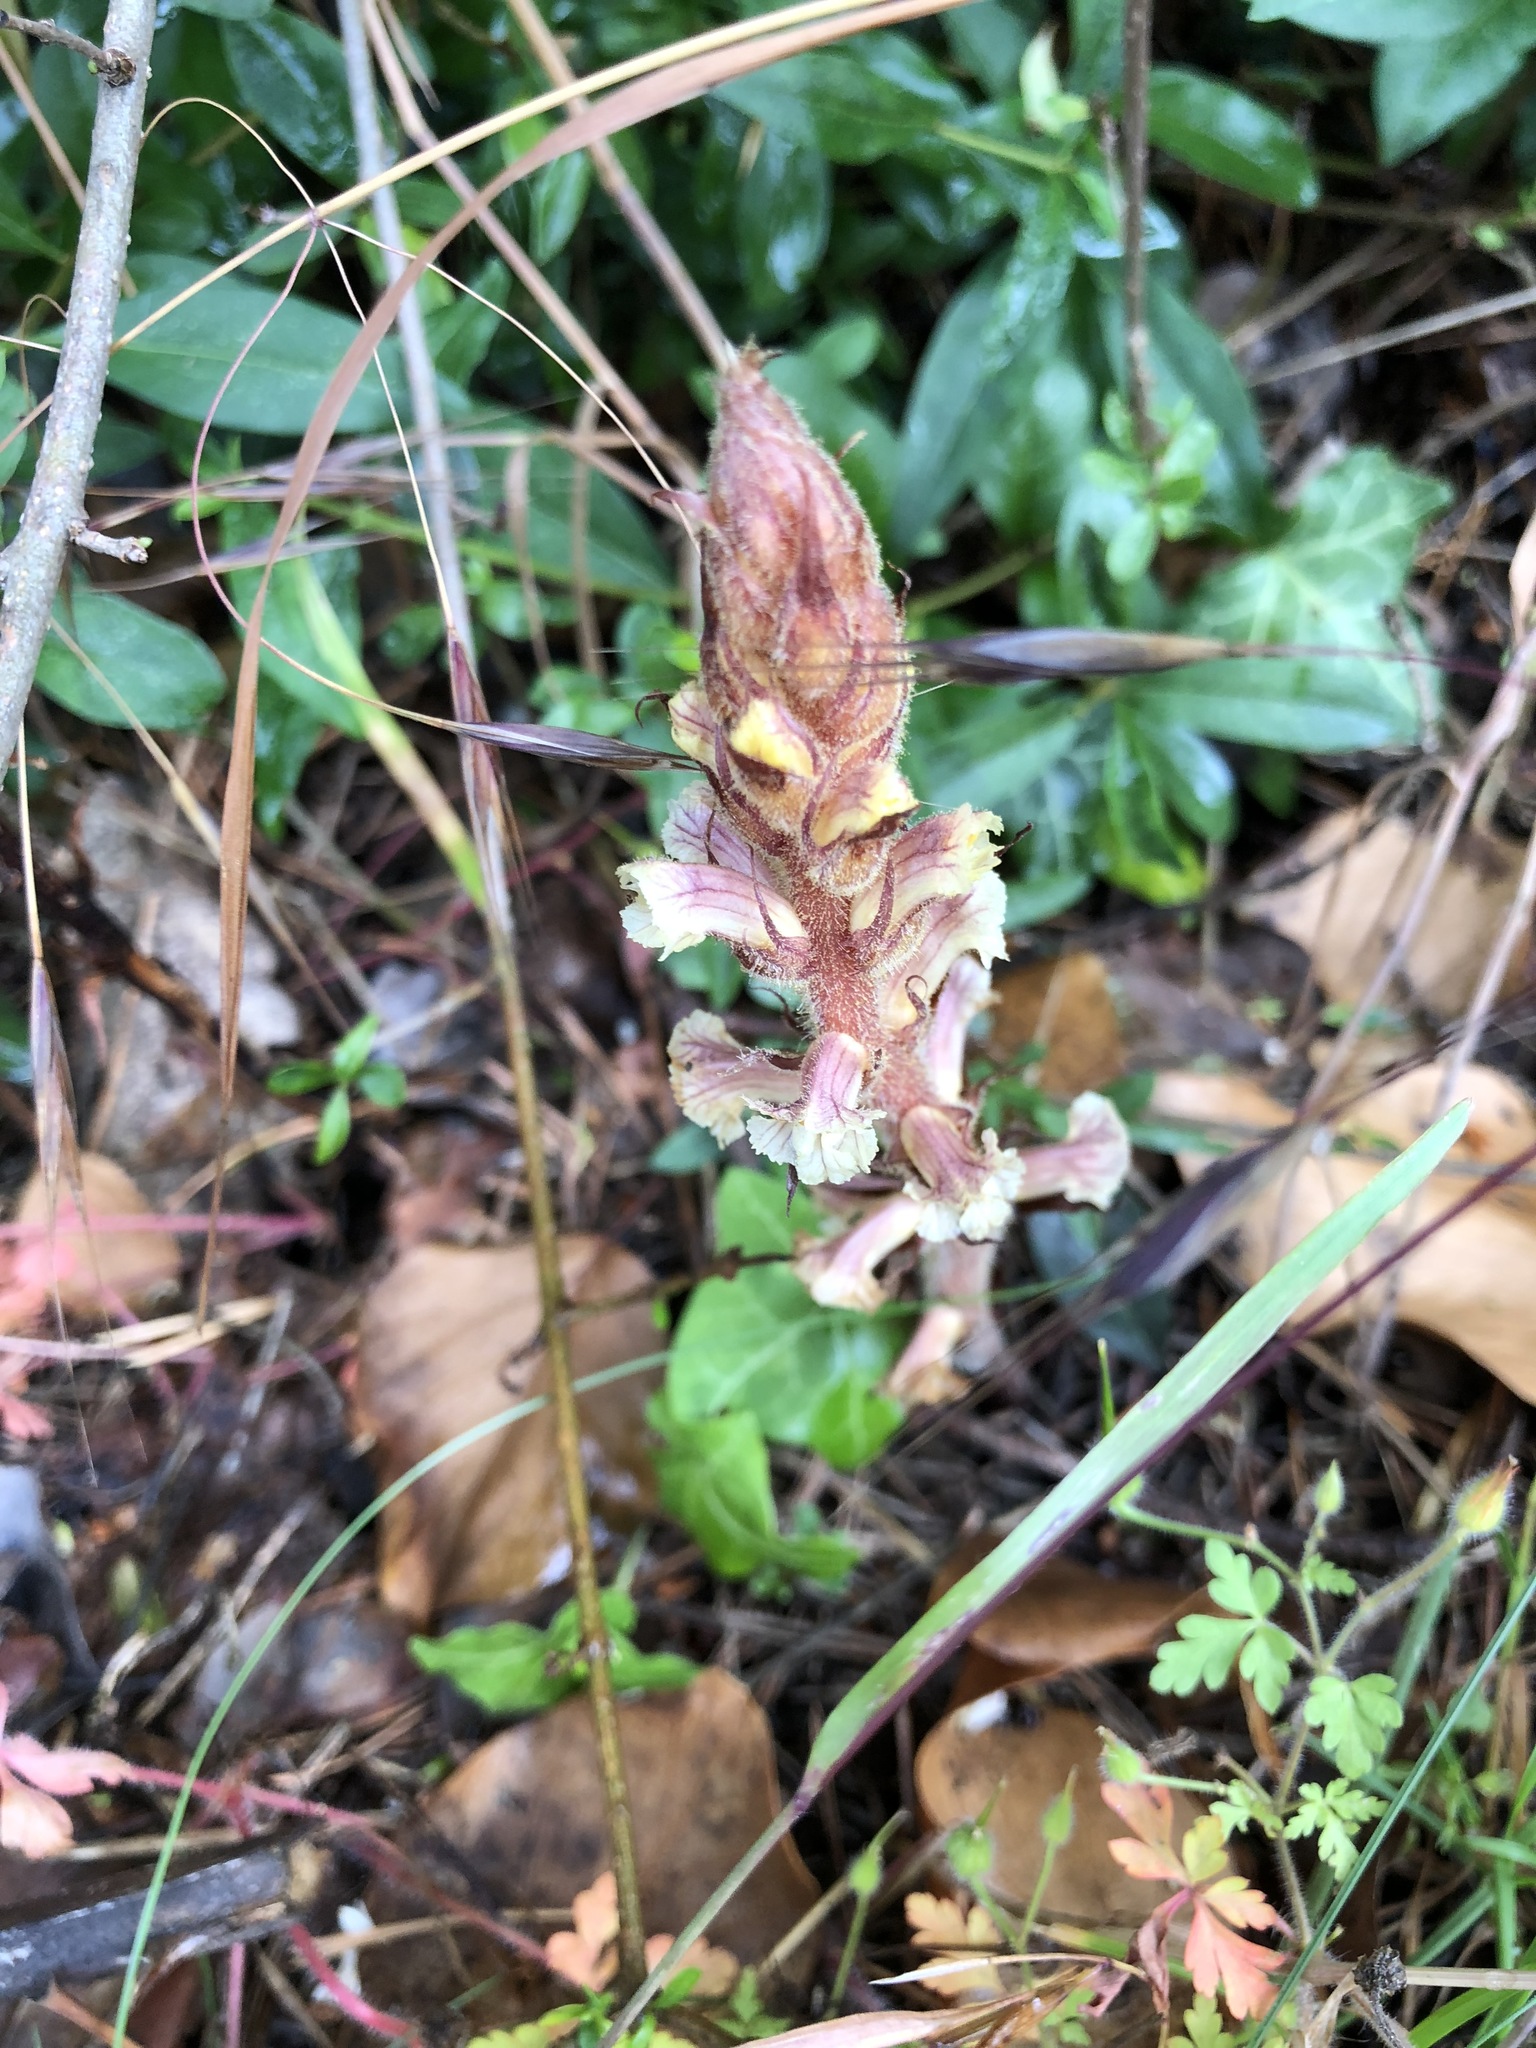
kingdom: Plantae
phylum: Tracheophyta
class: Magnoliopsida
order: Lamiales
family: Orobanchaceae
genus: Orobanche
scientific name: Orobanche hederae
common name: Ivy broomrape
